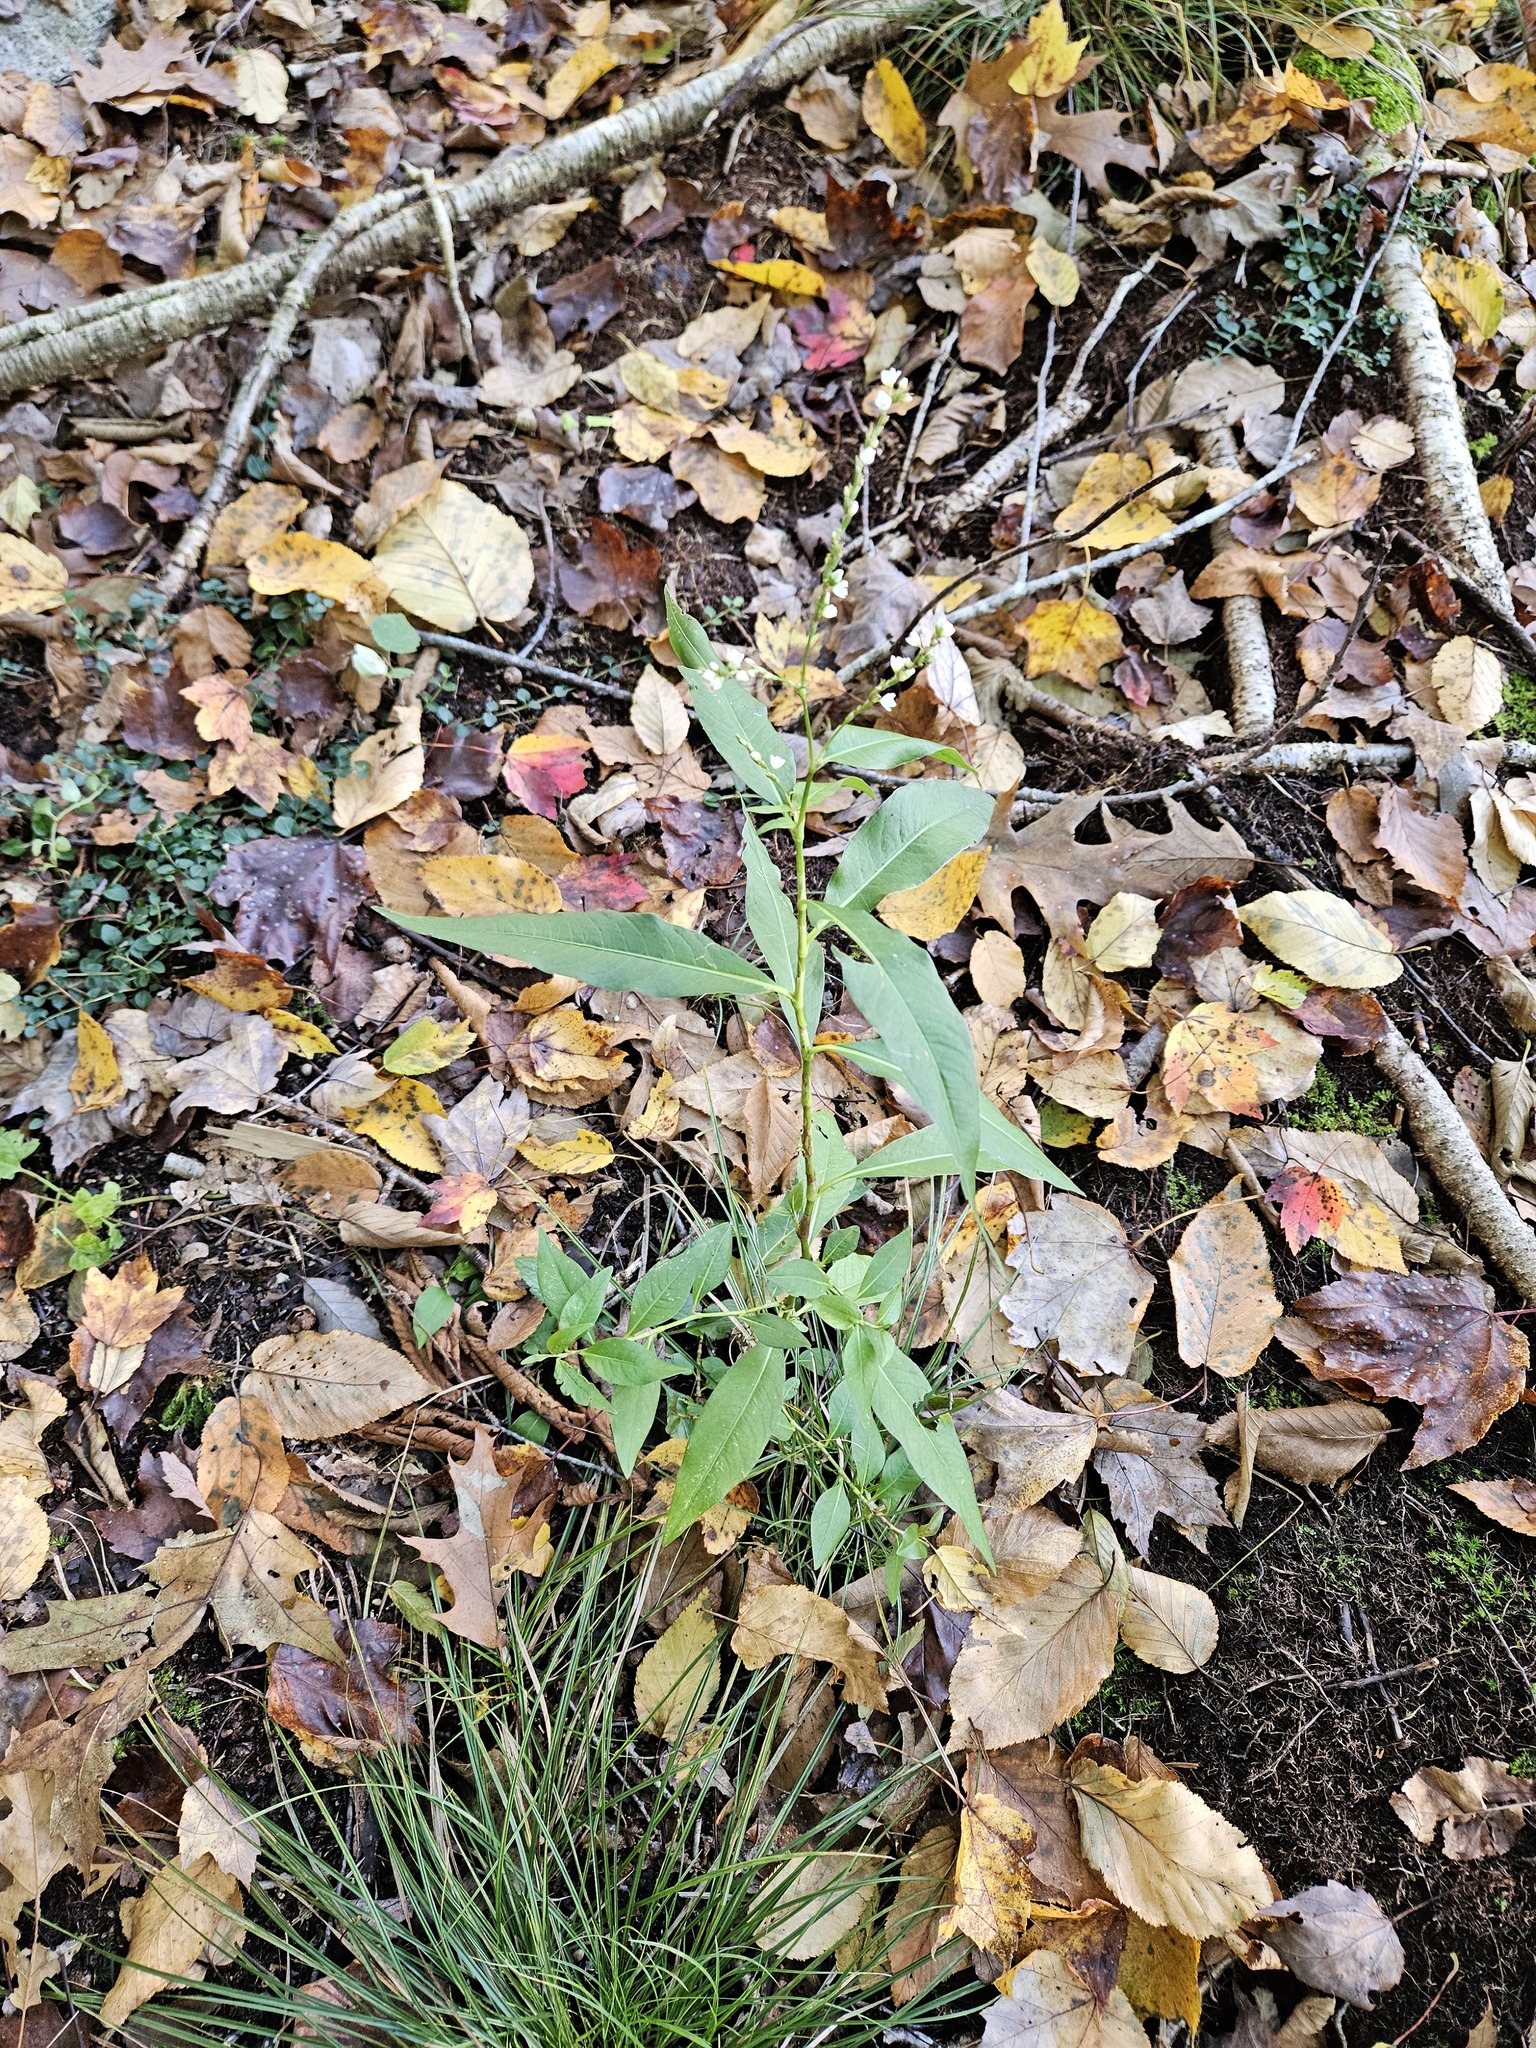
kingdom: Plantae
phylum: Tracheophyta
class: Magnoliopsida
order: Caryophyllales
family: Polygonaceae
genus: Persicaria
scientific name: Persicaria robustior
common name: Stout smartweed
